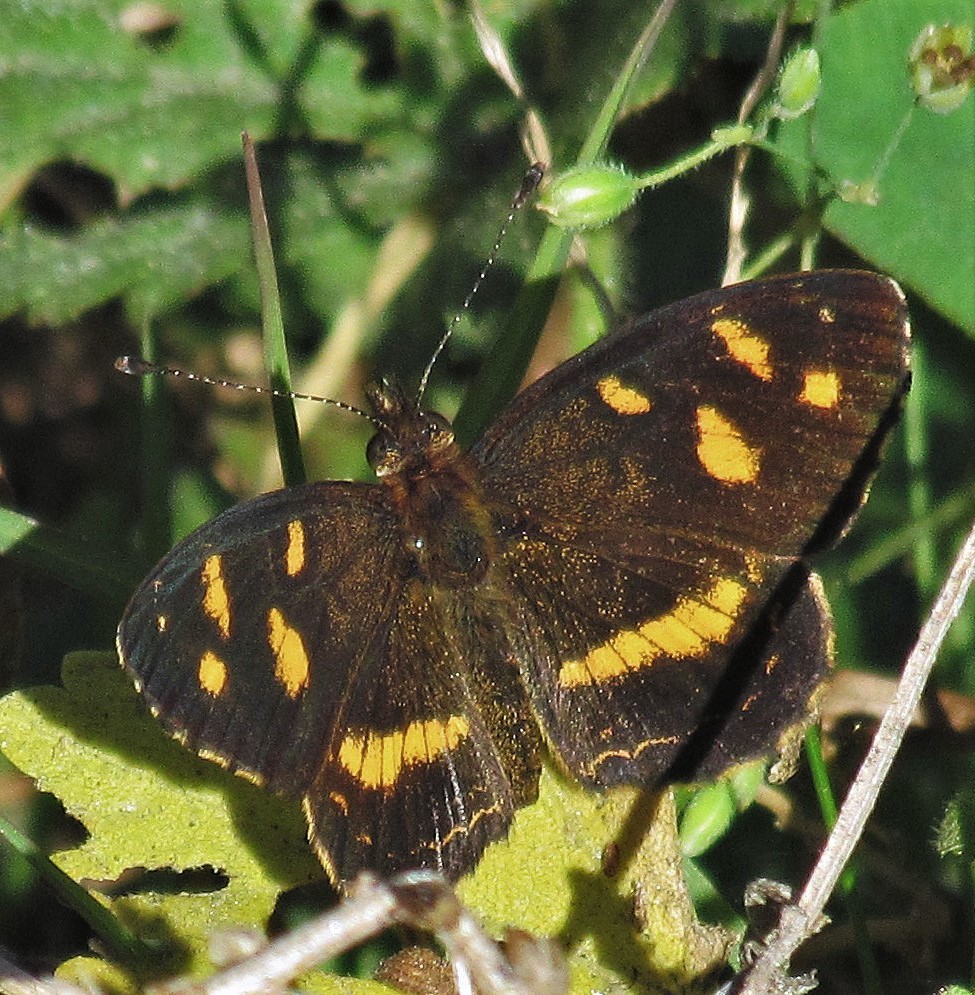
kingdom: Animalia
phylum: Arthropoda
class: Insecta
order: Lepidoptera
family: Nymphalidae
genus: Telenassa
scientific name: Telenassa berenice
